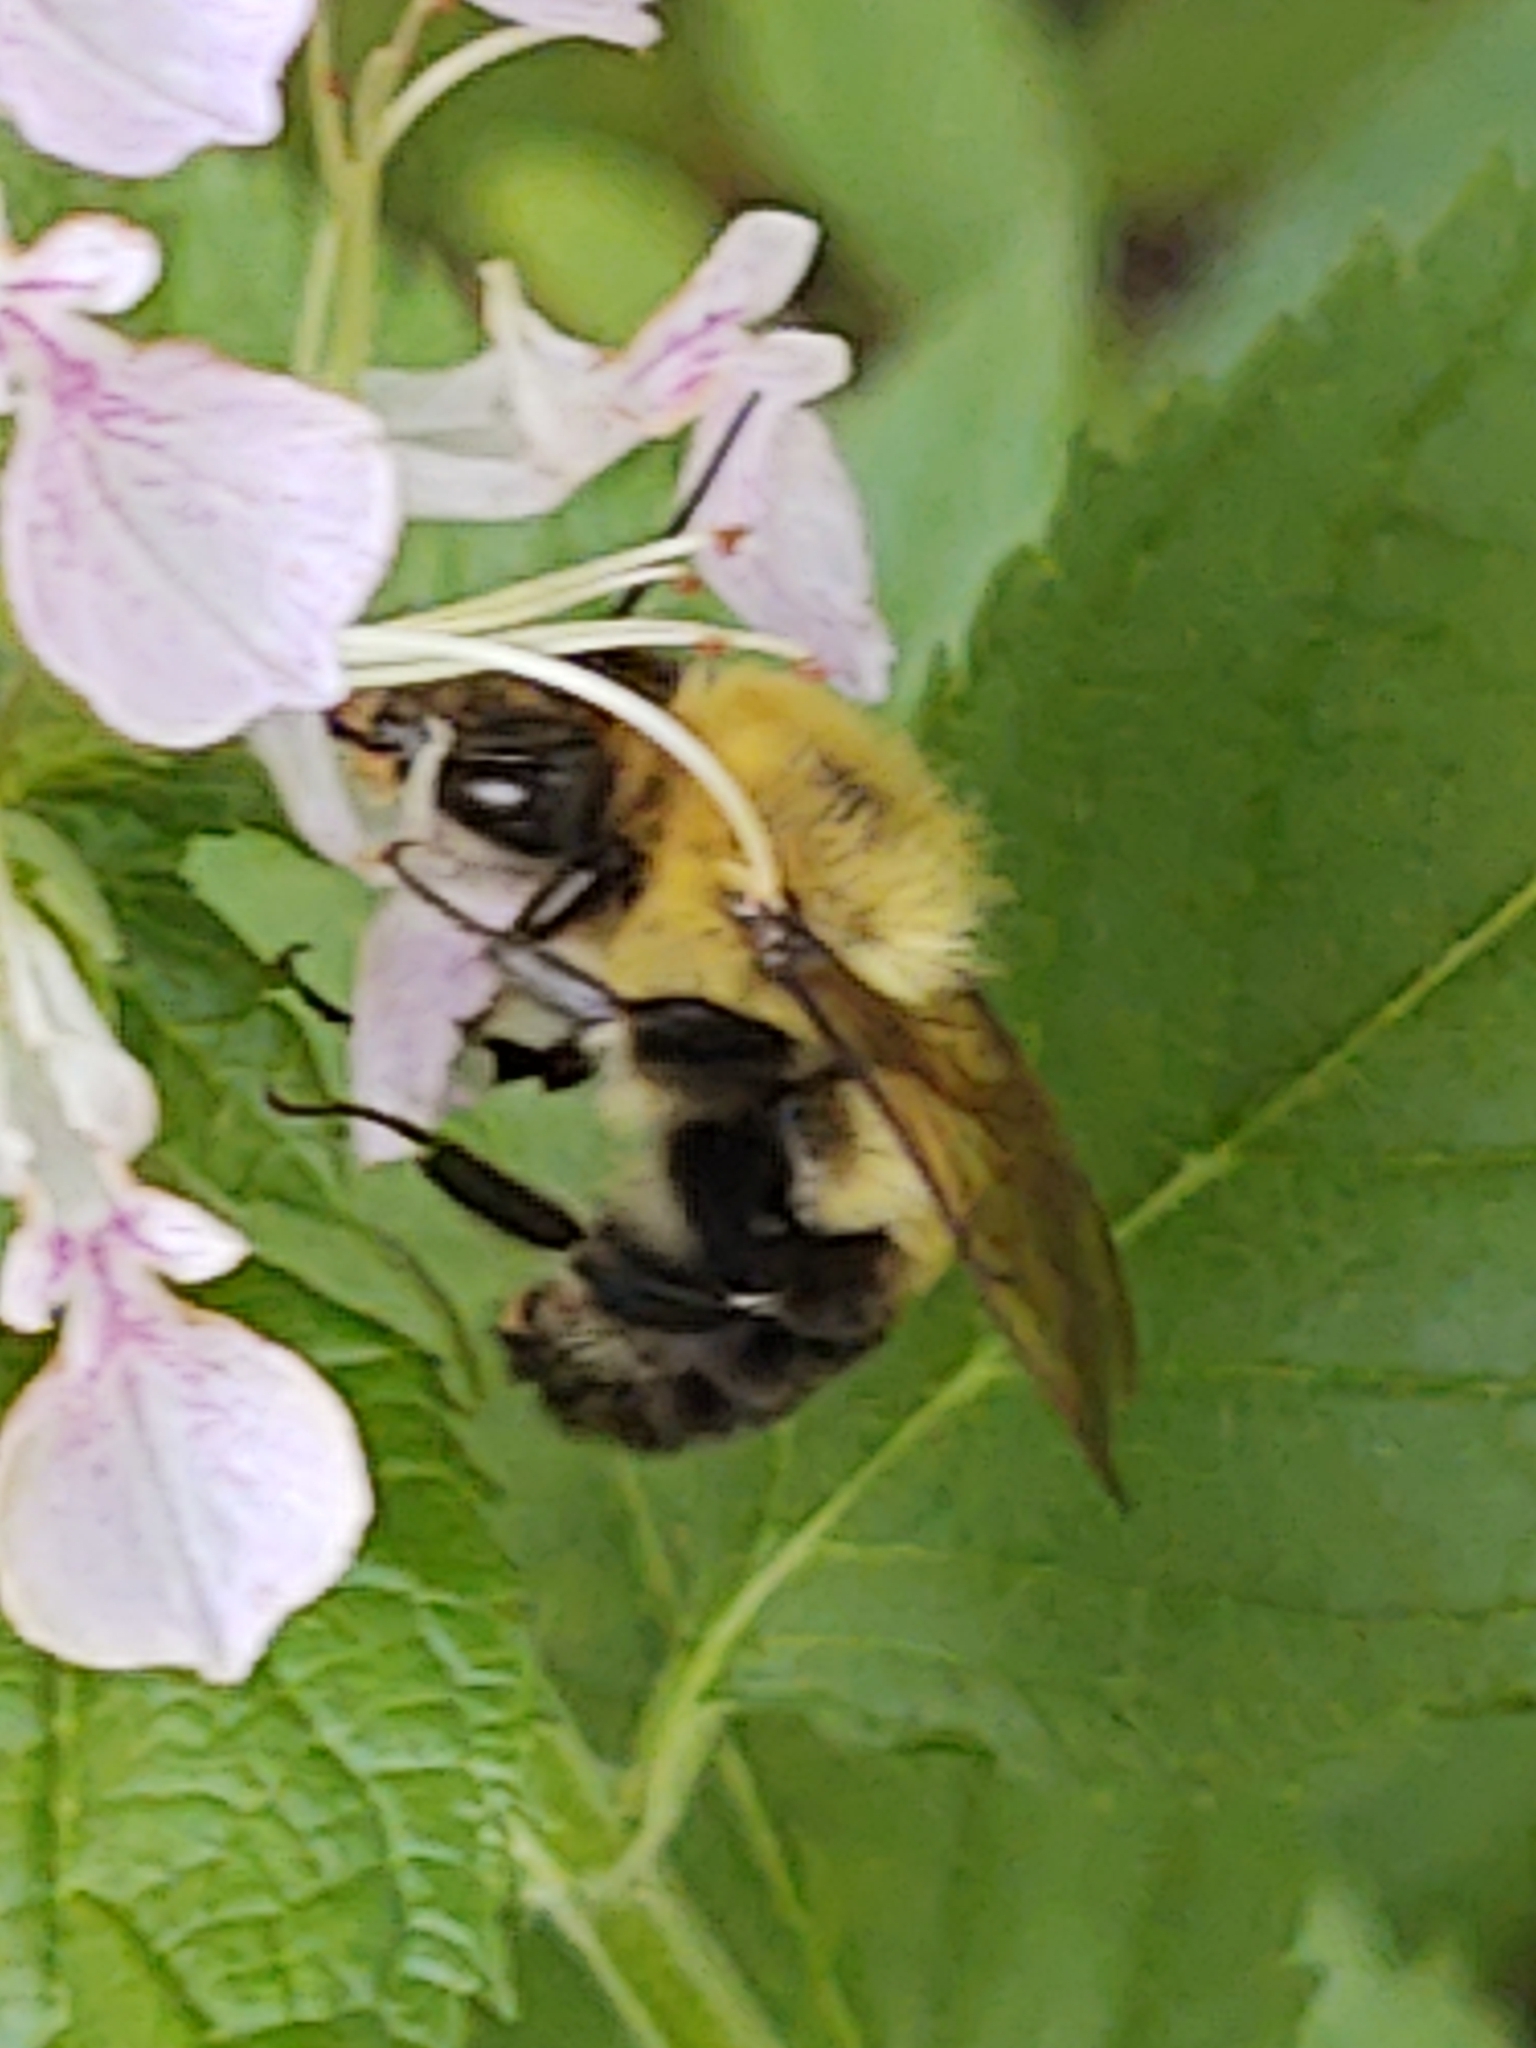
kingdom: Animalia
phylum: Arthropoda
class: Insecta
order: Hymenoptera
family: Apidae
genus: Bombus
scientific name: Bombus bimaculatus
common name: Two-spotted bumble bee
